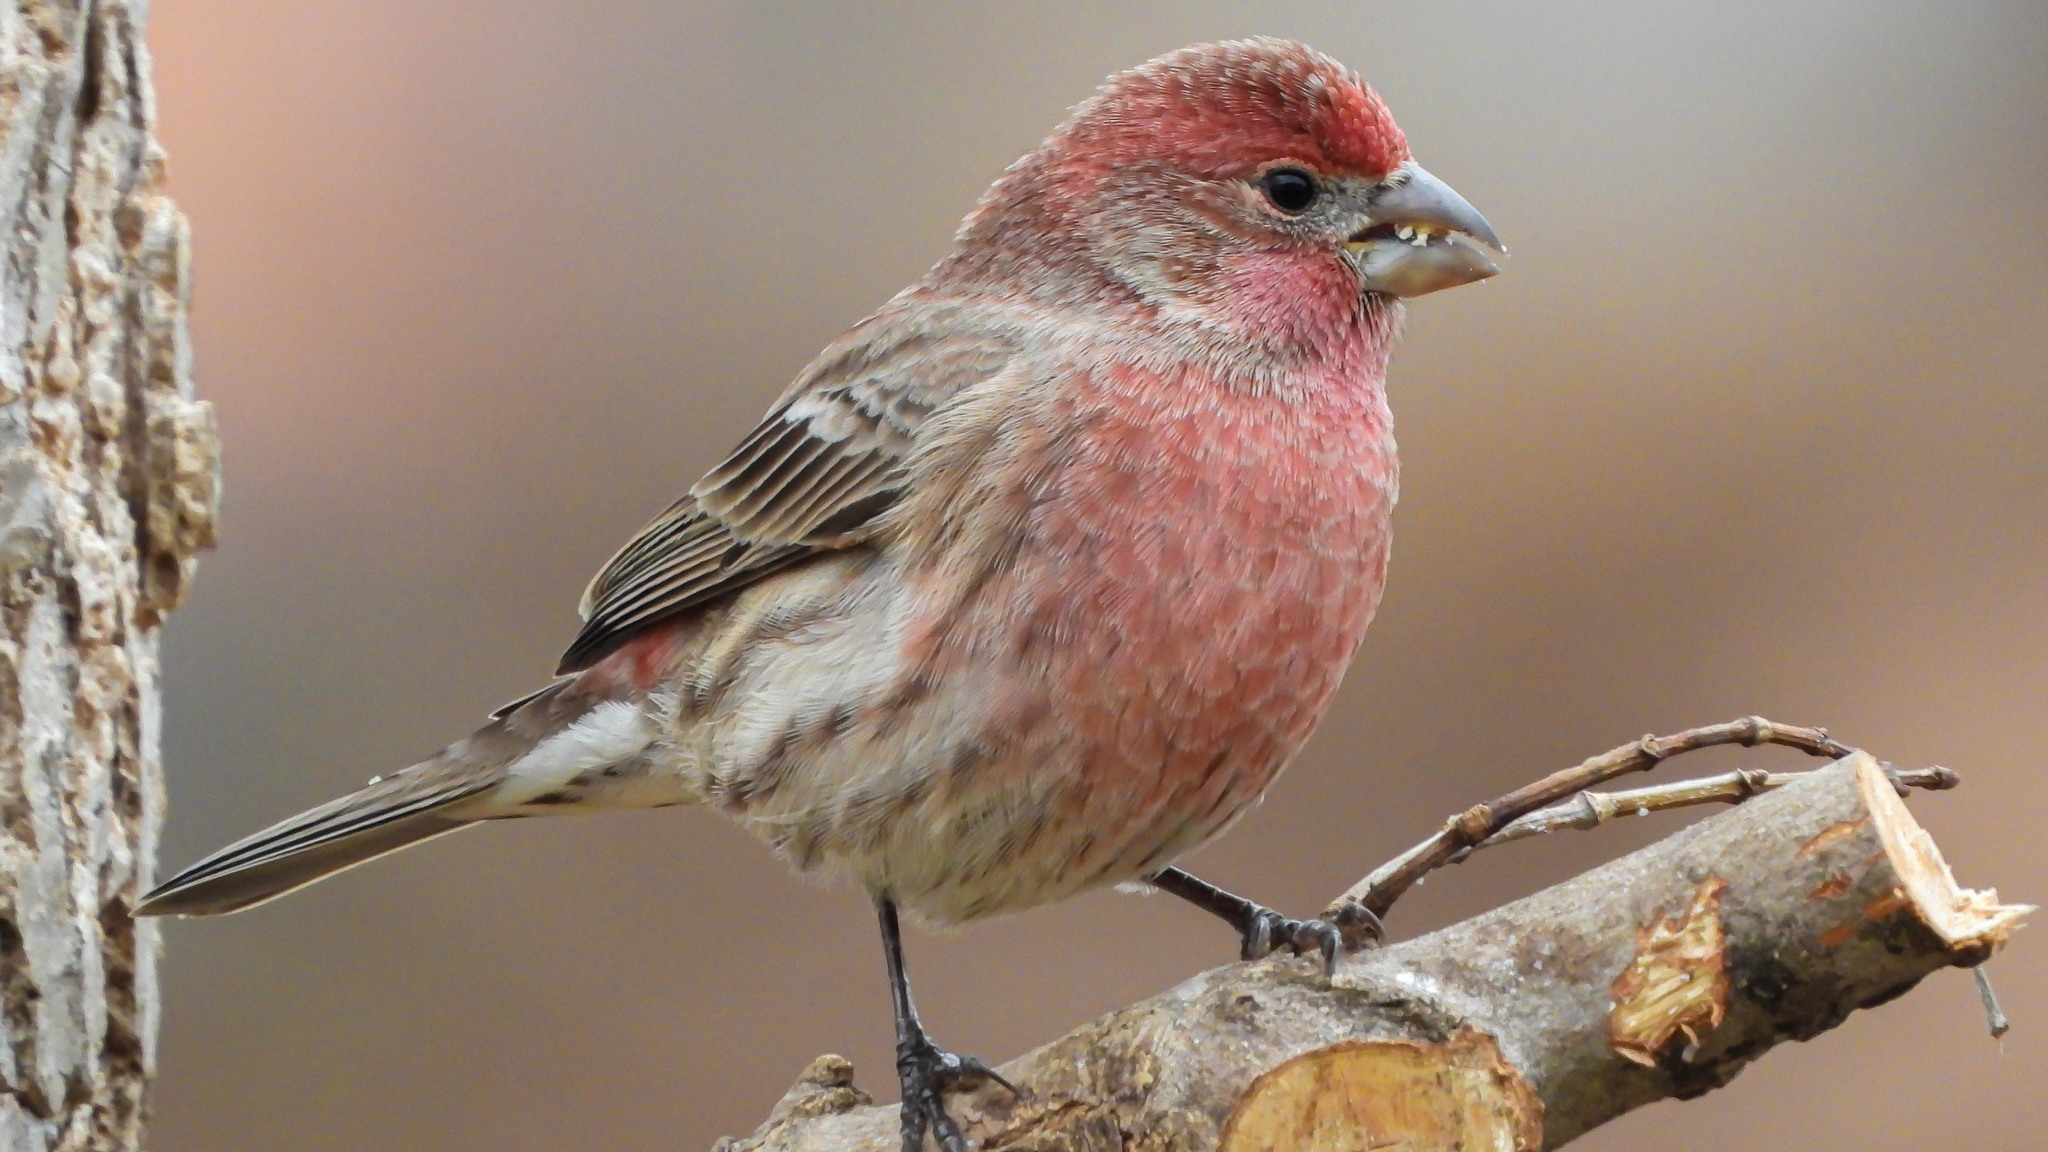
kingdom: Animalia
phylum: Chordata
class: Aves
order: Passeriformes
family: Fringillidae
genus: Haemorhous
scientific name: Haemorhous mexicanus
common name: House finch
